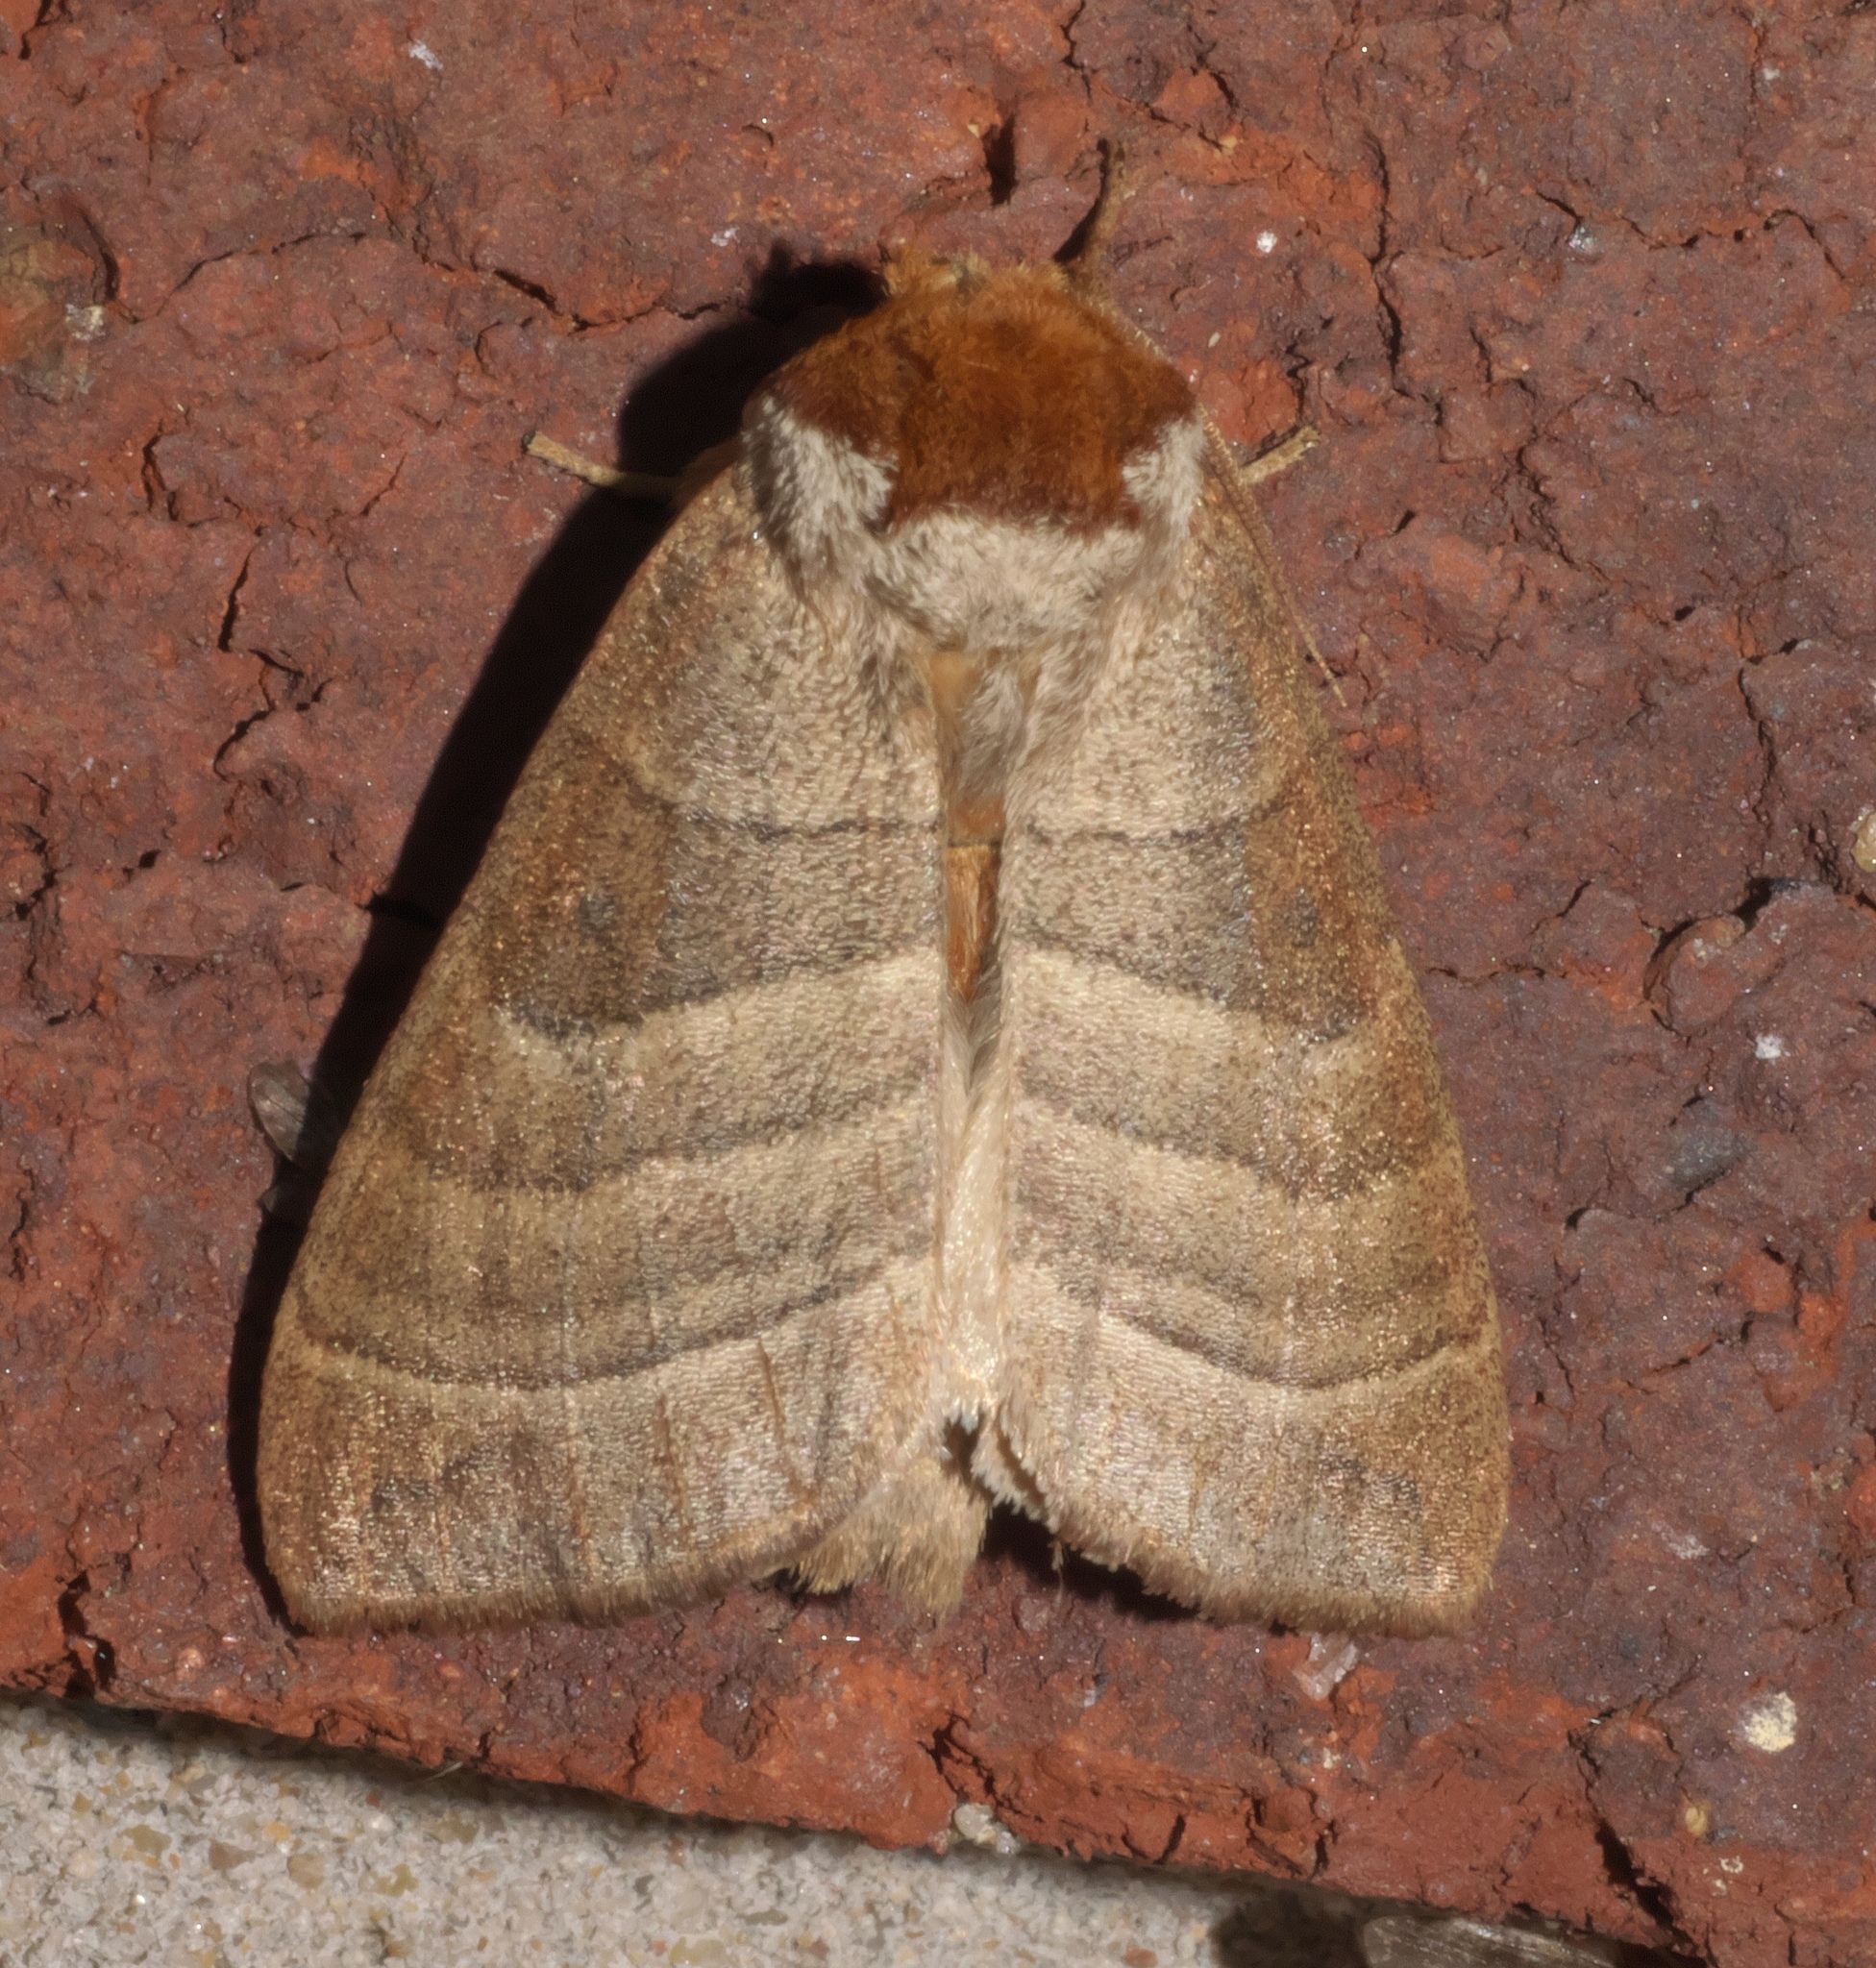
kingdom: Animalia
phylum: Arthropoda
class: Insecta
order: Lepidoptera
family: Notodontidae
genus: Datana
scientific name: Datana integerrima
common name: Walnut caterpillar
